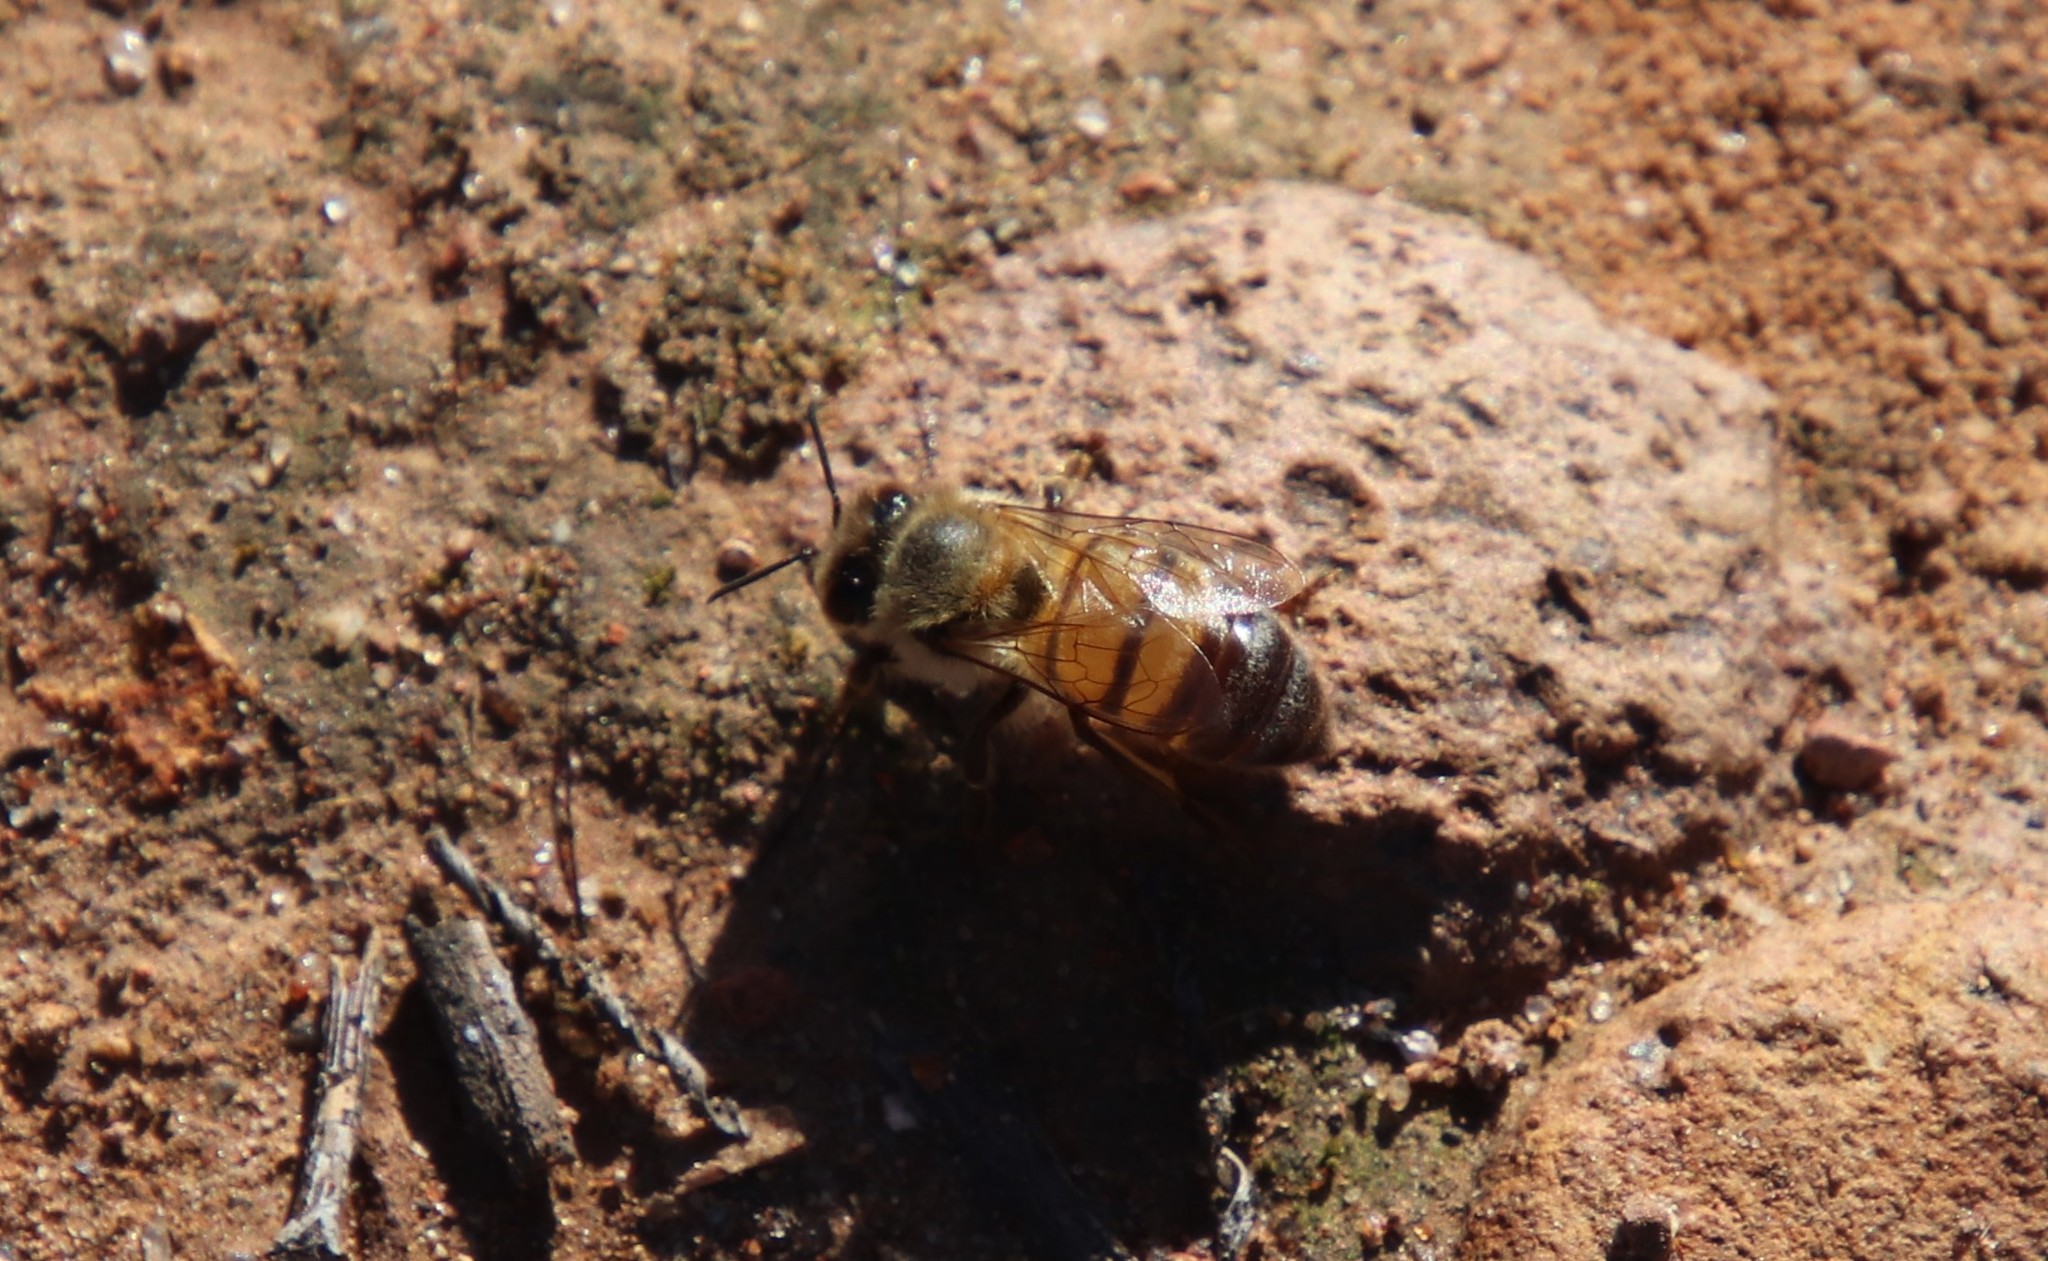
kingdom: Animalia
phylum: Arthropoda
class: Insecta
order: Hymenoptera
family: Apidae
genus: Apis
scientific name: Apis mellifera
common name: Honey bee
